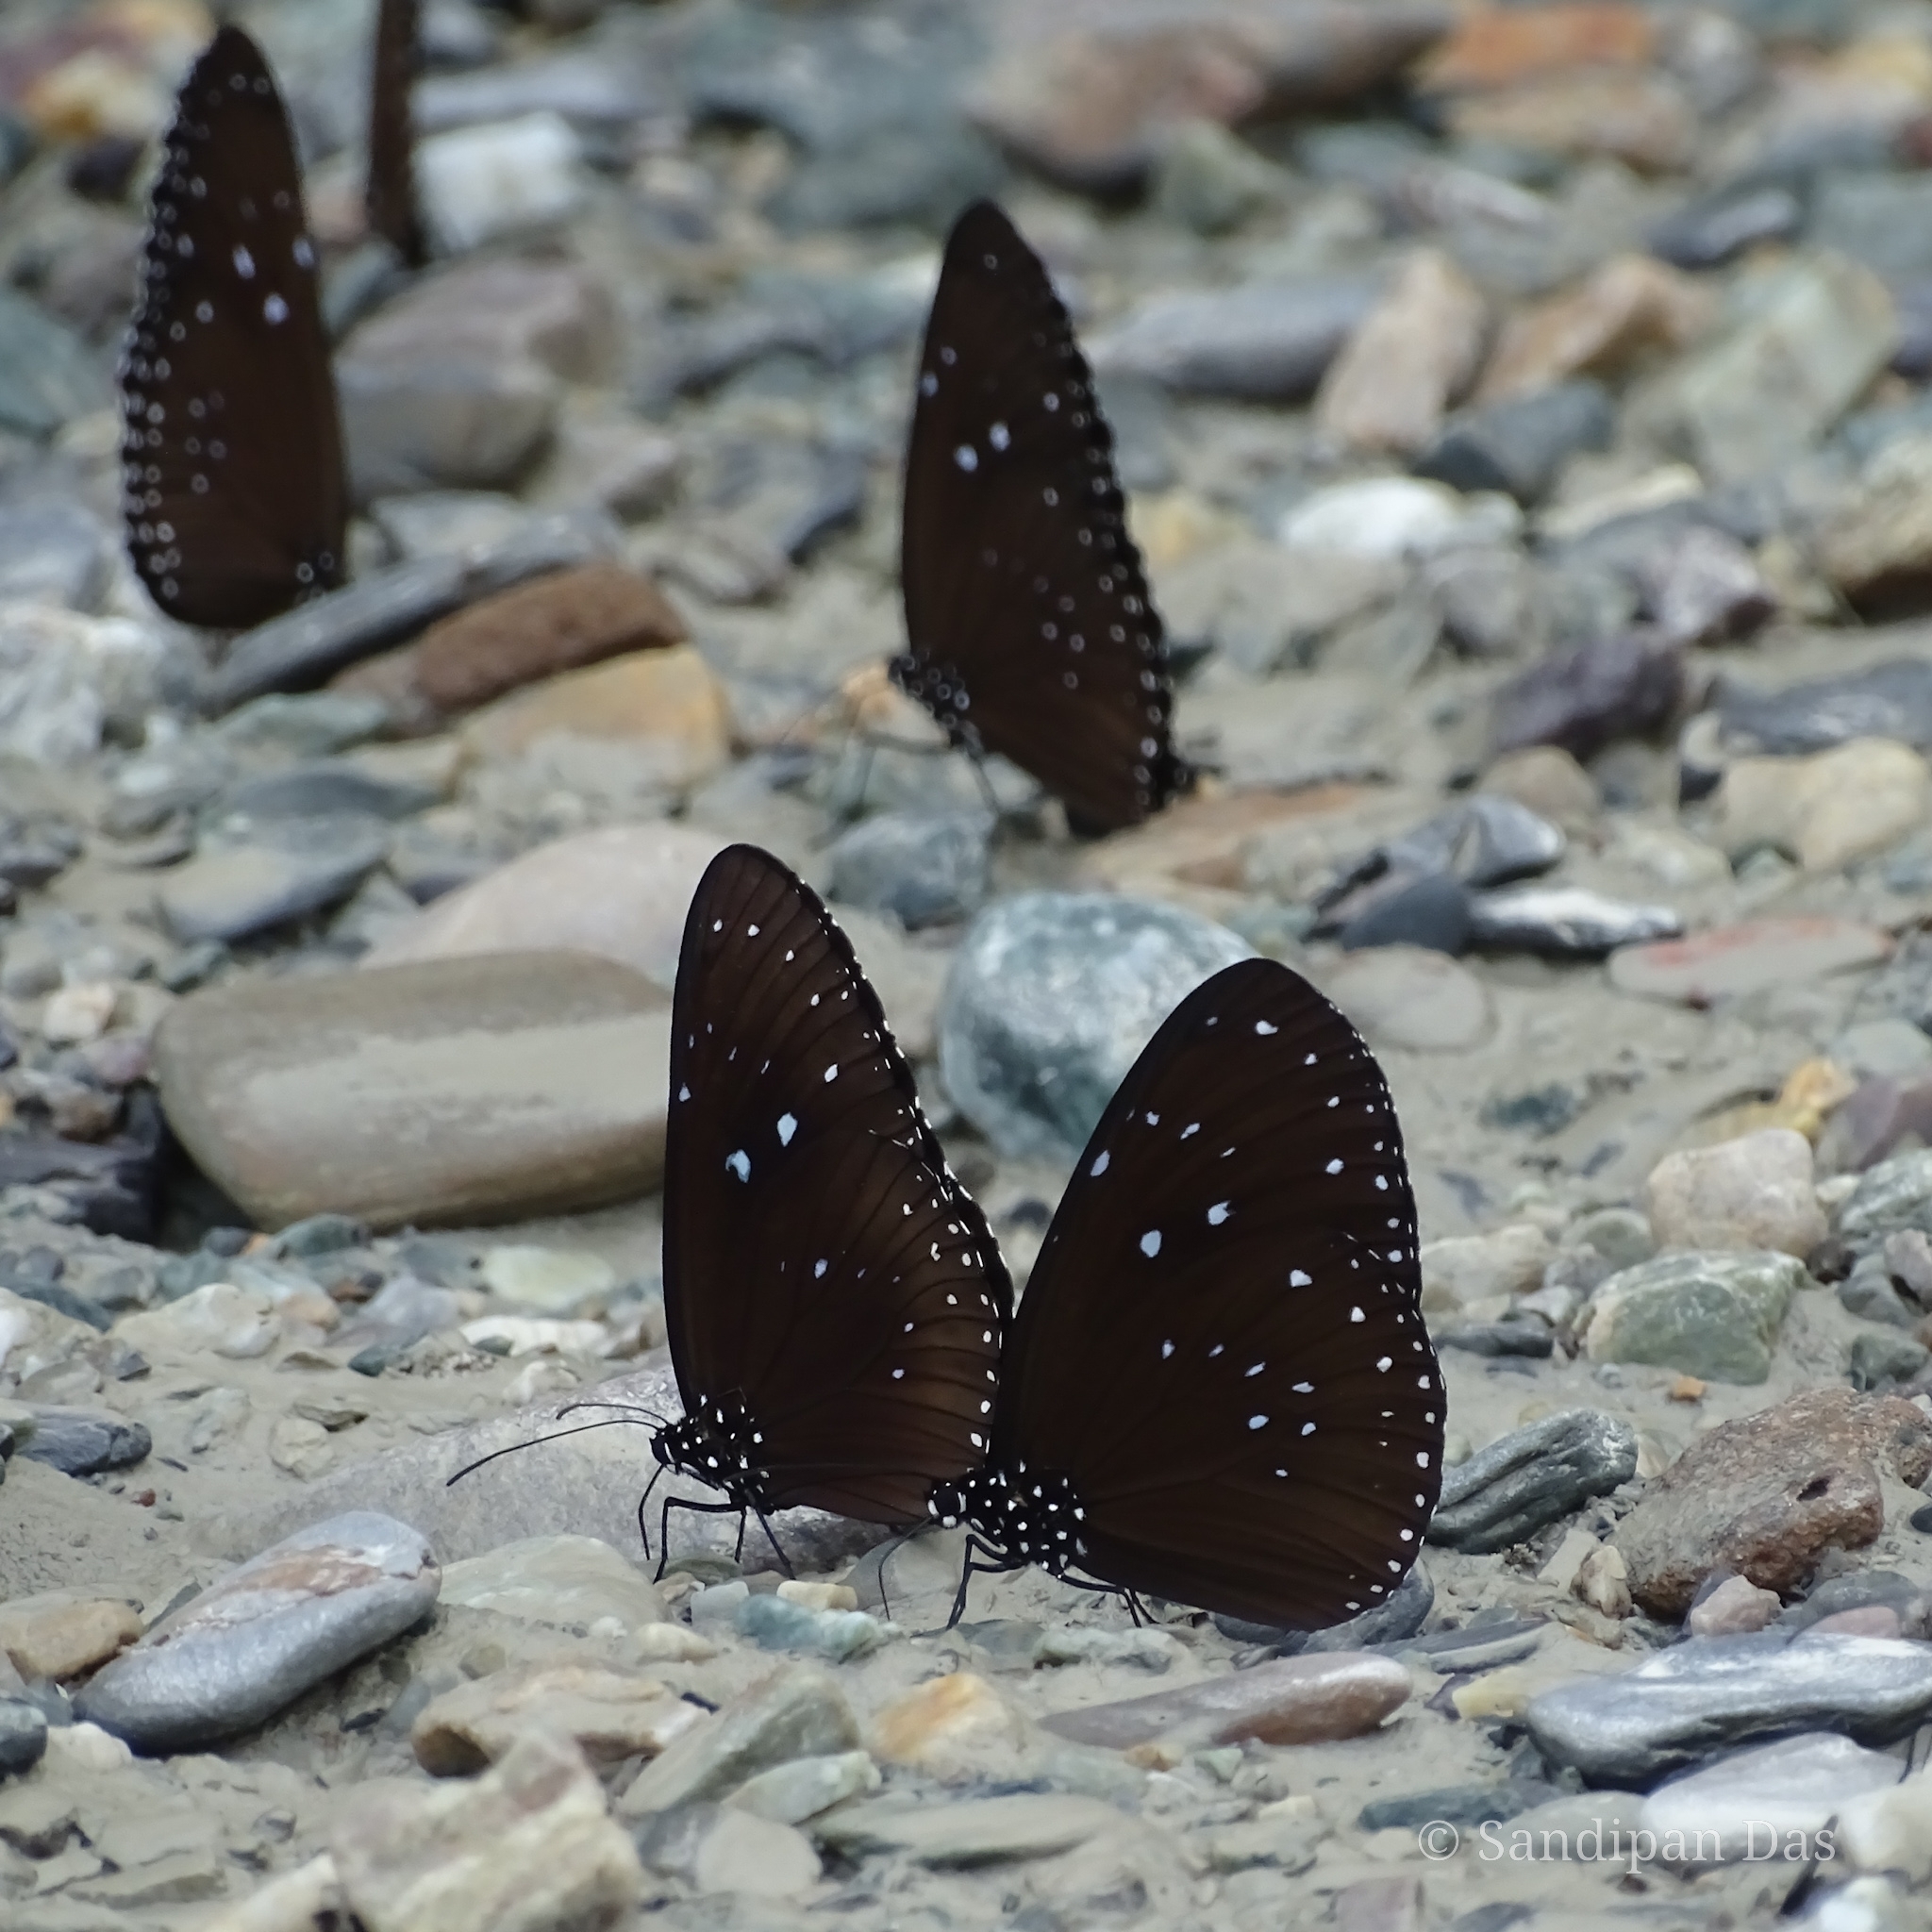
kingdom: Animalia
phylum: Arthropoda
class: Insecta
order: Lepidoptera
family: Nymphalidae
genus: Euploea
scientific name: Euploea midamus
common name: Blue-spotted crow butterfly
